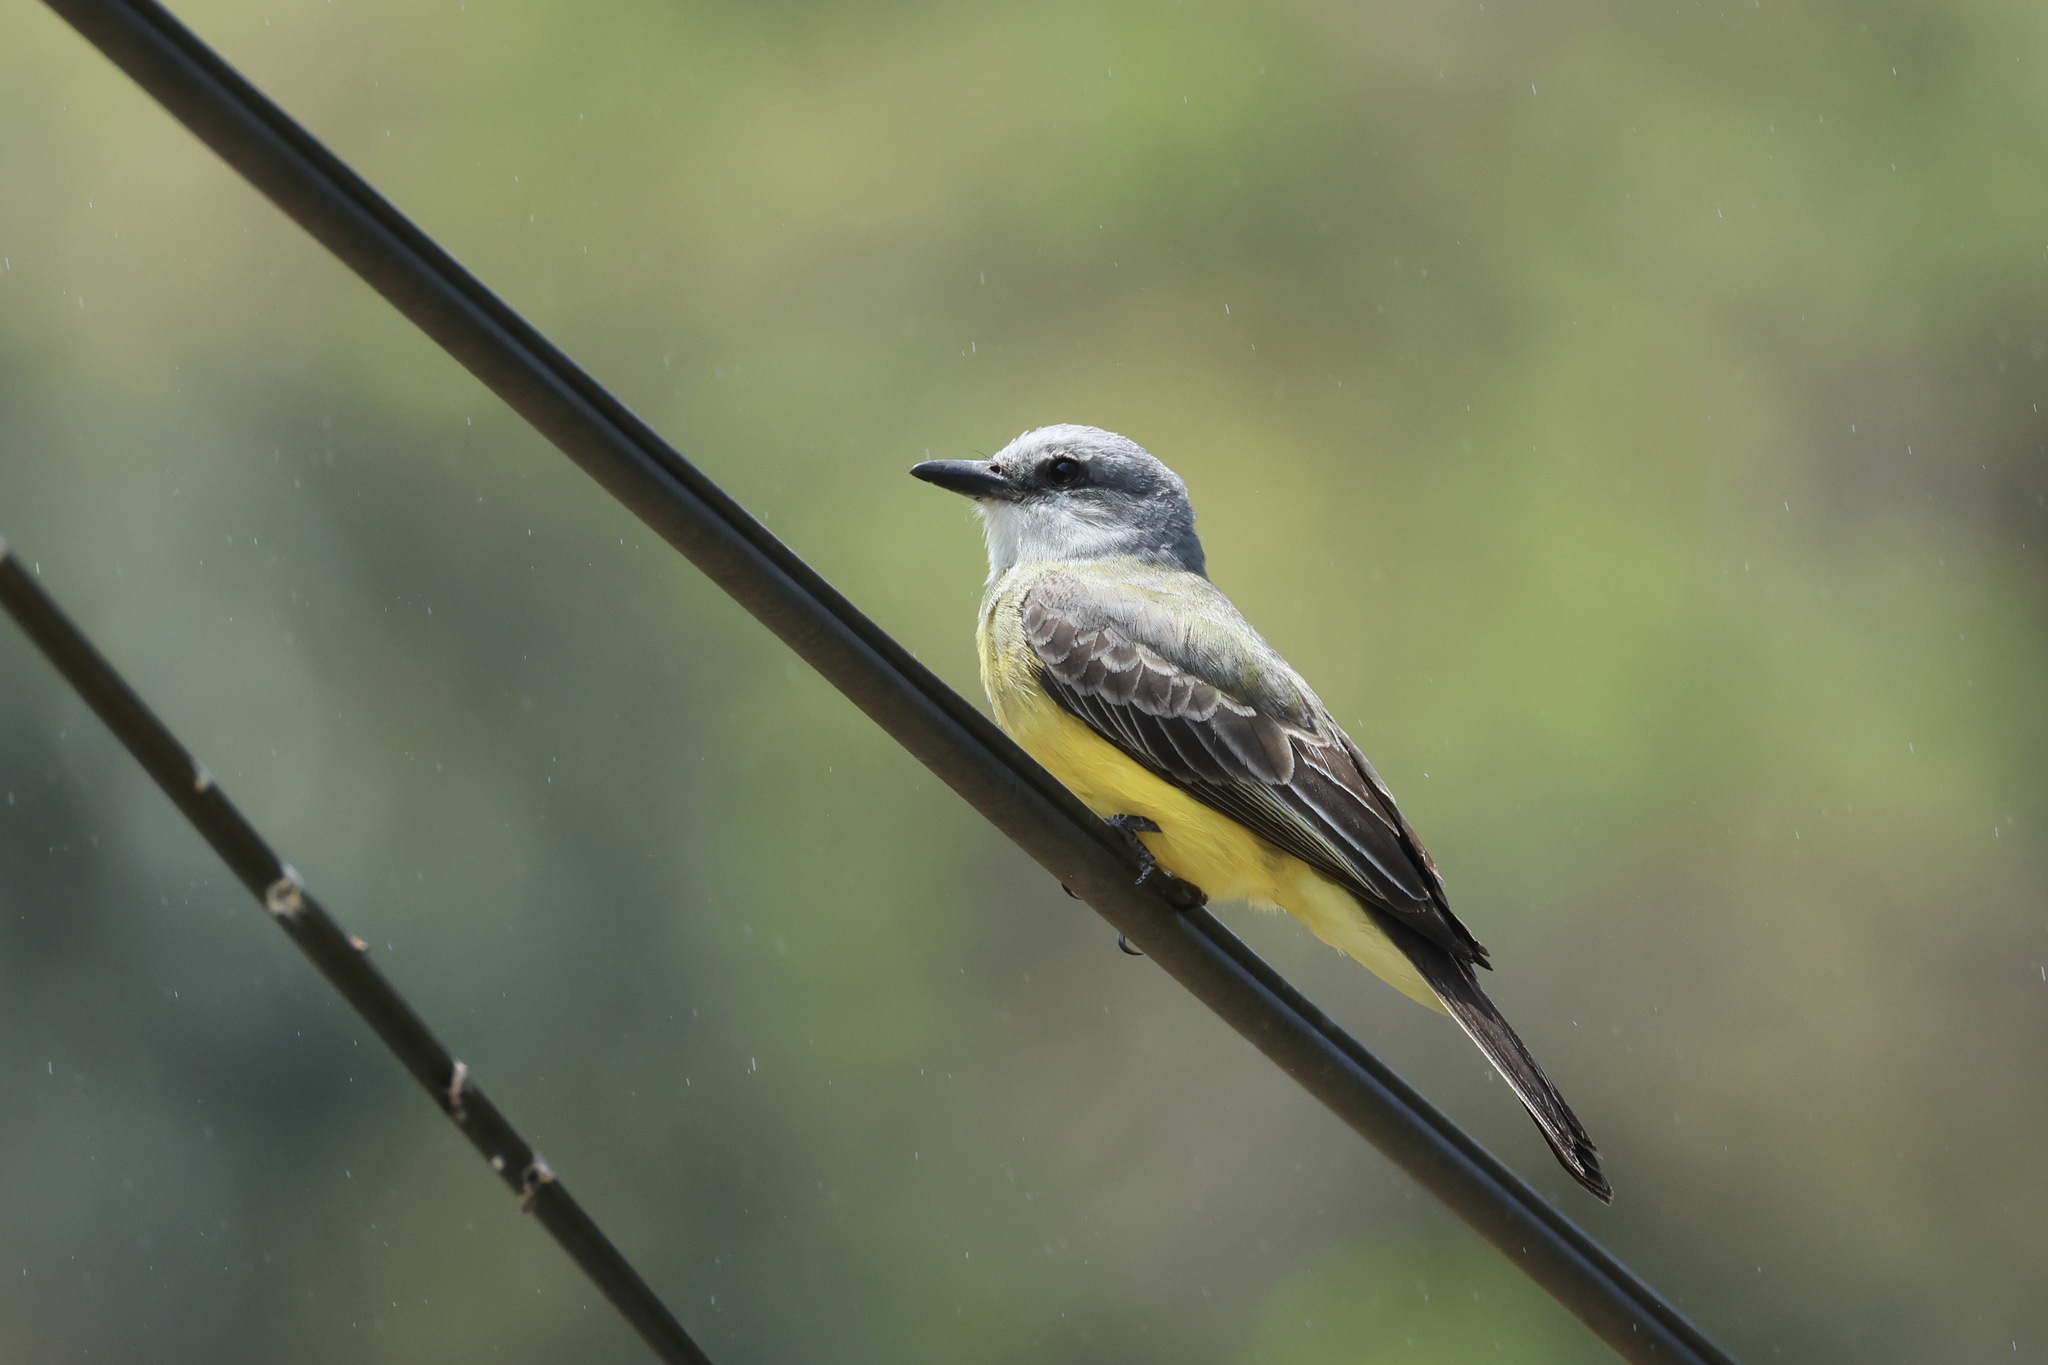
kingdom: Animalia
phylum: Chordata
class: Aves
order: Passeriformes
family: Tyrannidae
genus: Tyrannus
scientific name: Tyrannus melancholicus
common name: Tropical kingbird
